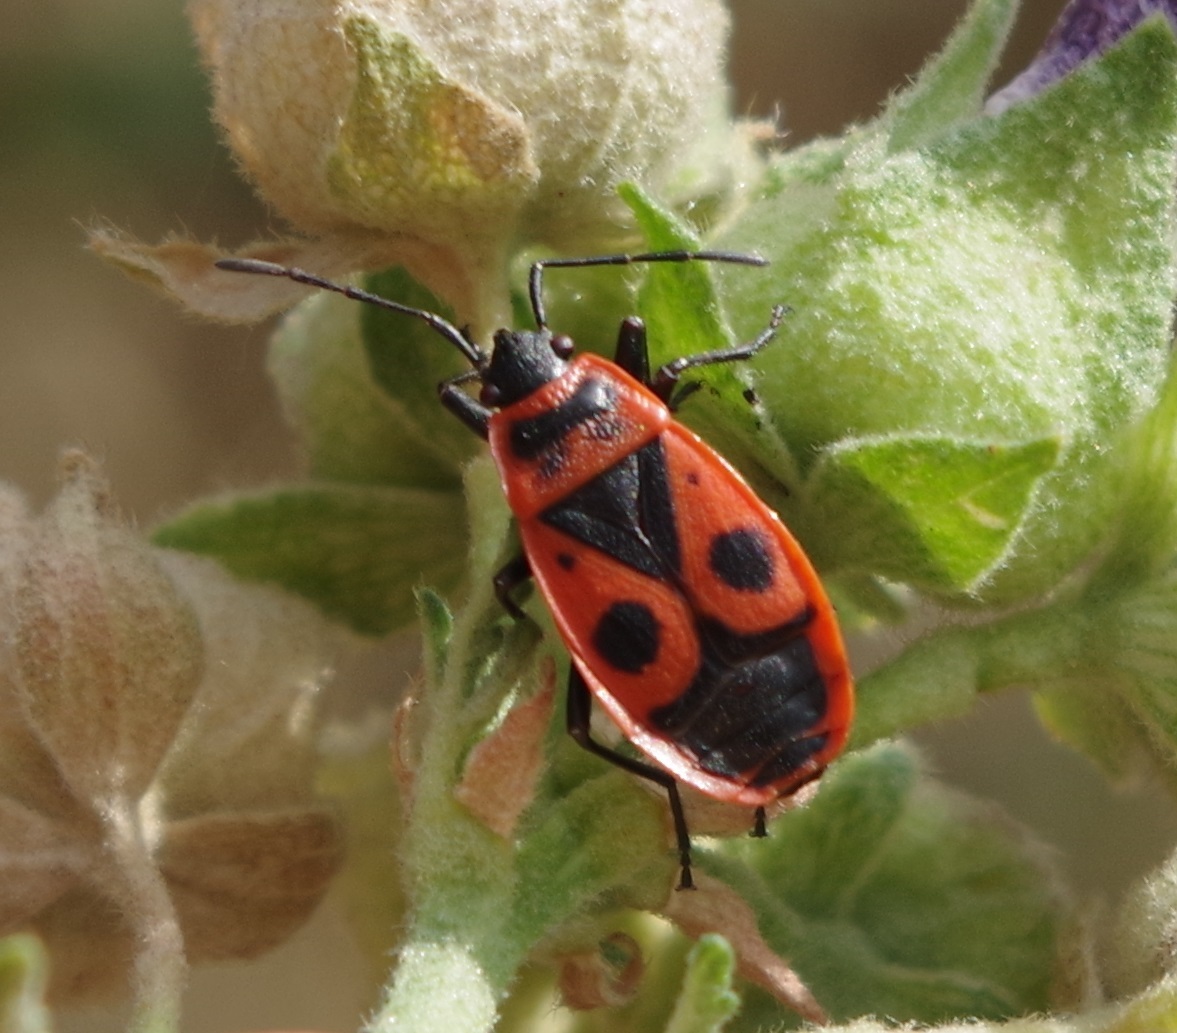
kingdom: Animalia
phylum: Arthropoda
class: Insecta
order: Hemiptera
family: Pyrrhocoridae
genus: Pyrrhocoris
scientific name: Pyrrhocoris apterus
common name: Firebug
